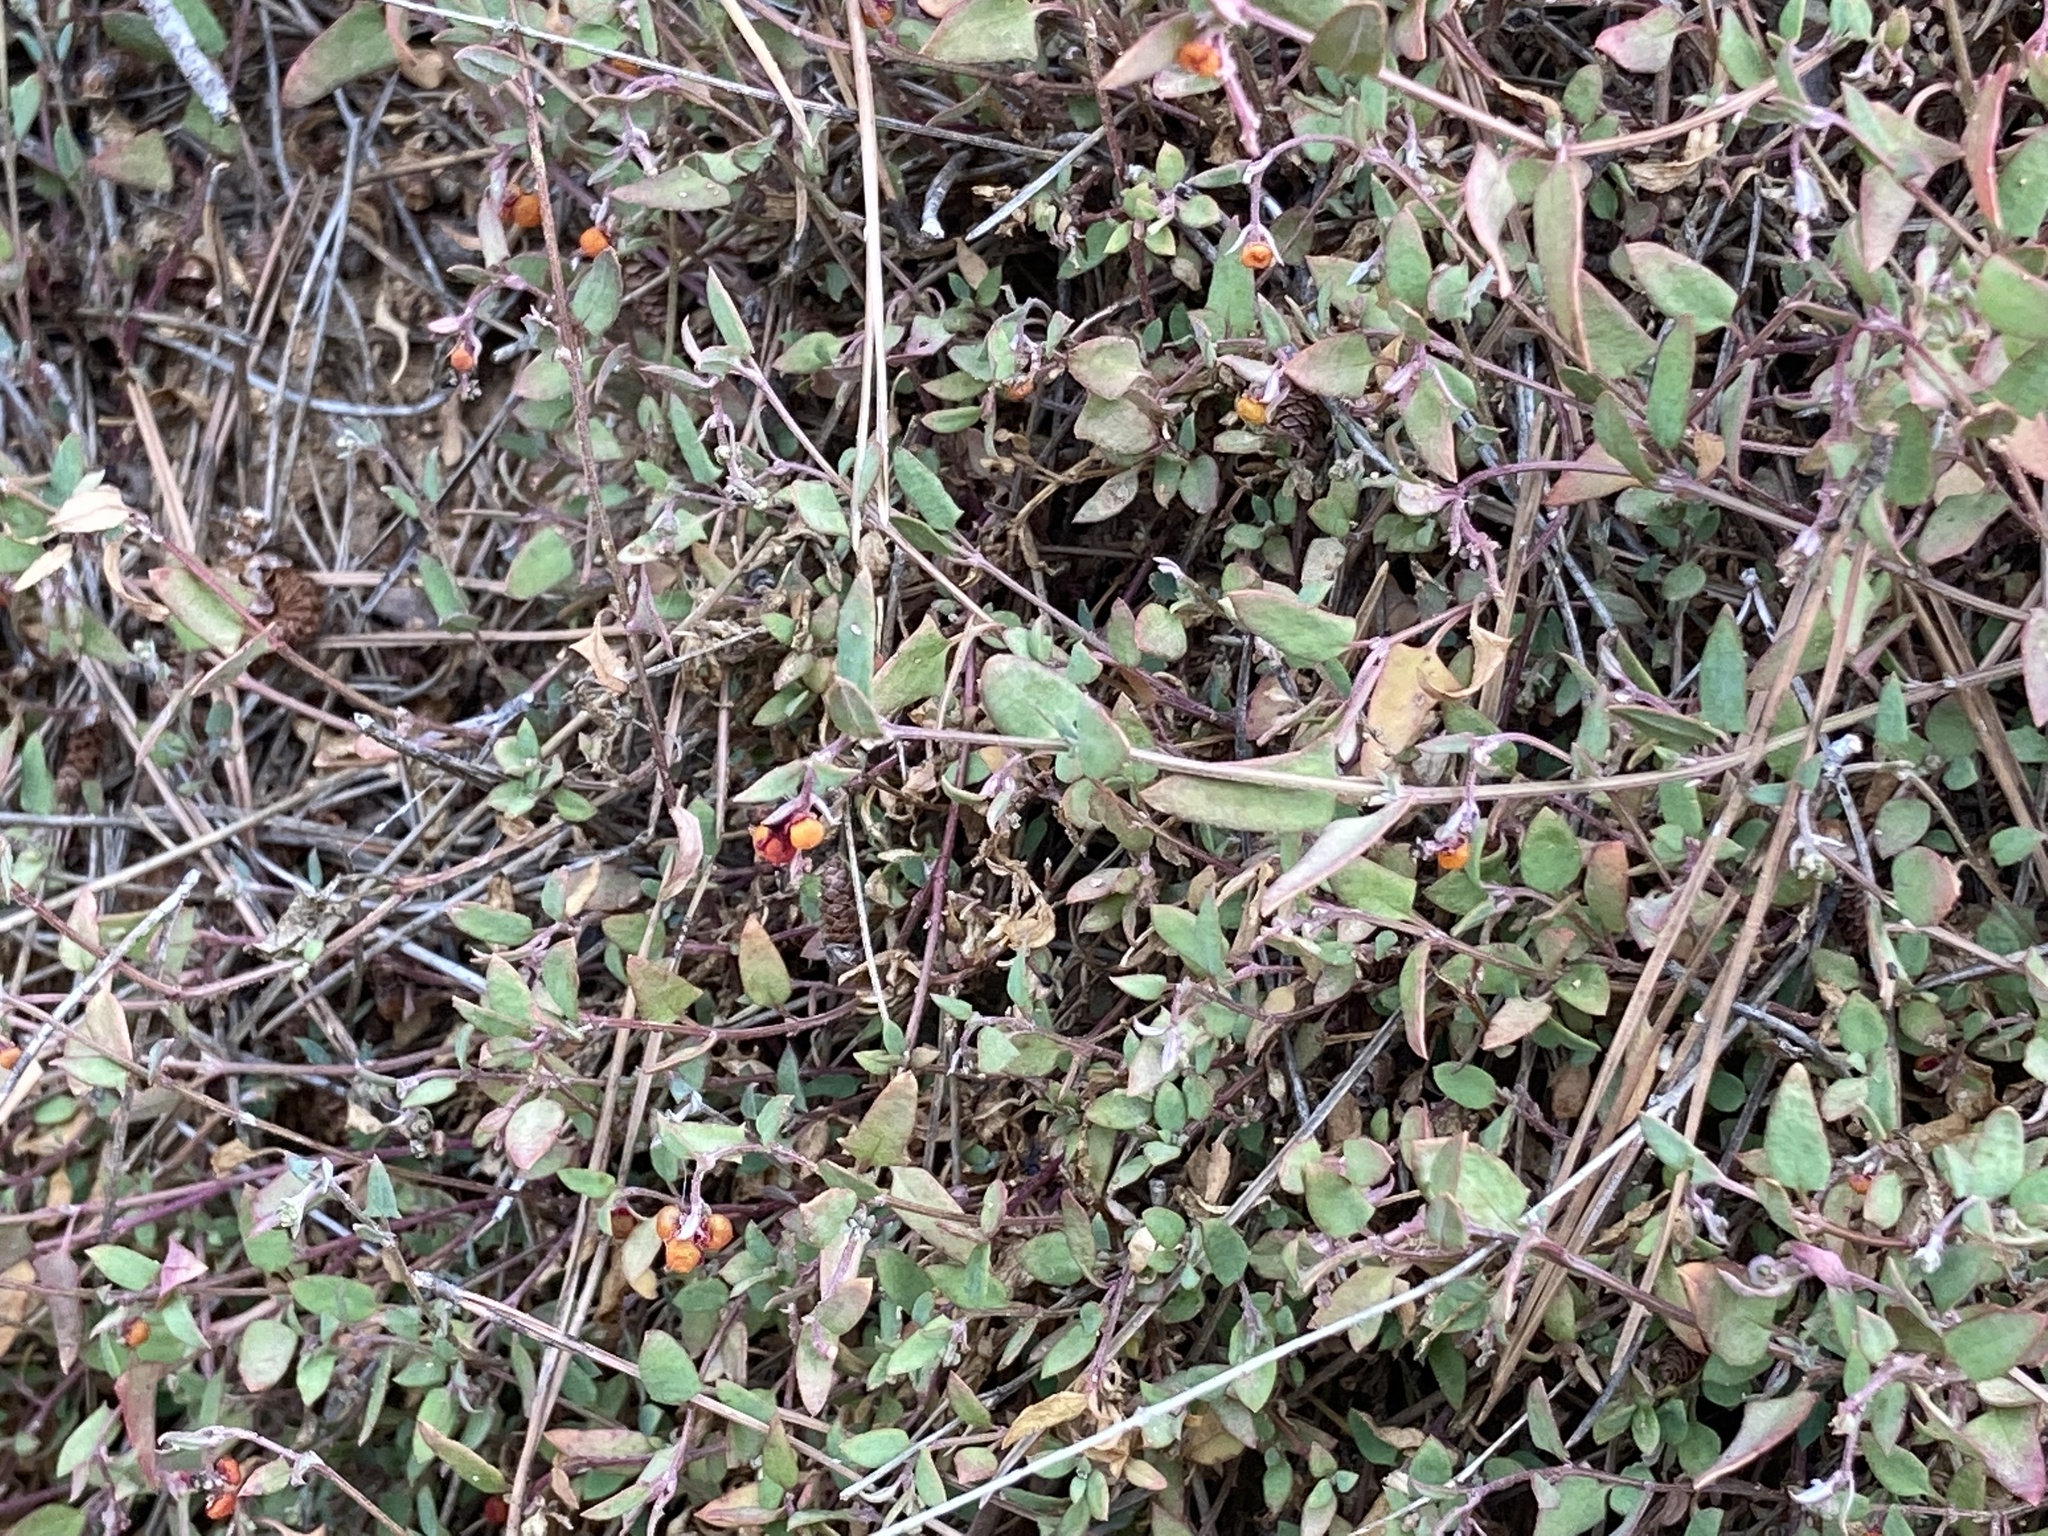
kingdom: Plantae
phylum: Tracheophyta
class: Magnoliopsida
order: Caryophyllales
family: Amaranthaceae
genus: Chenopodium
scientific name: Chenopodium nutans
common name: Climbing-saltbush
